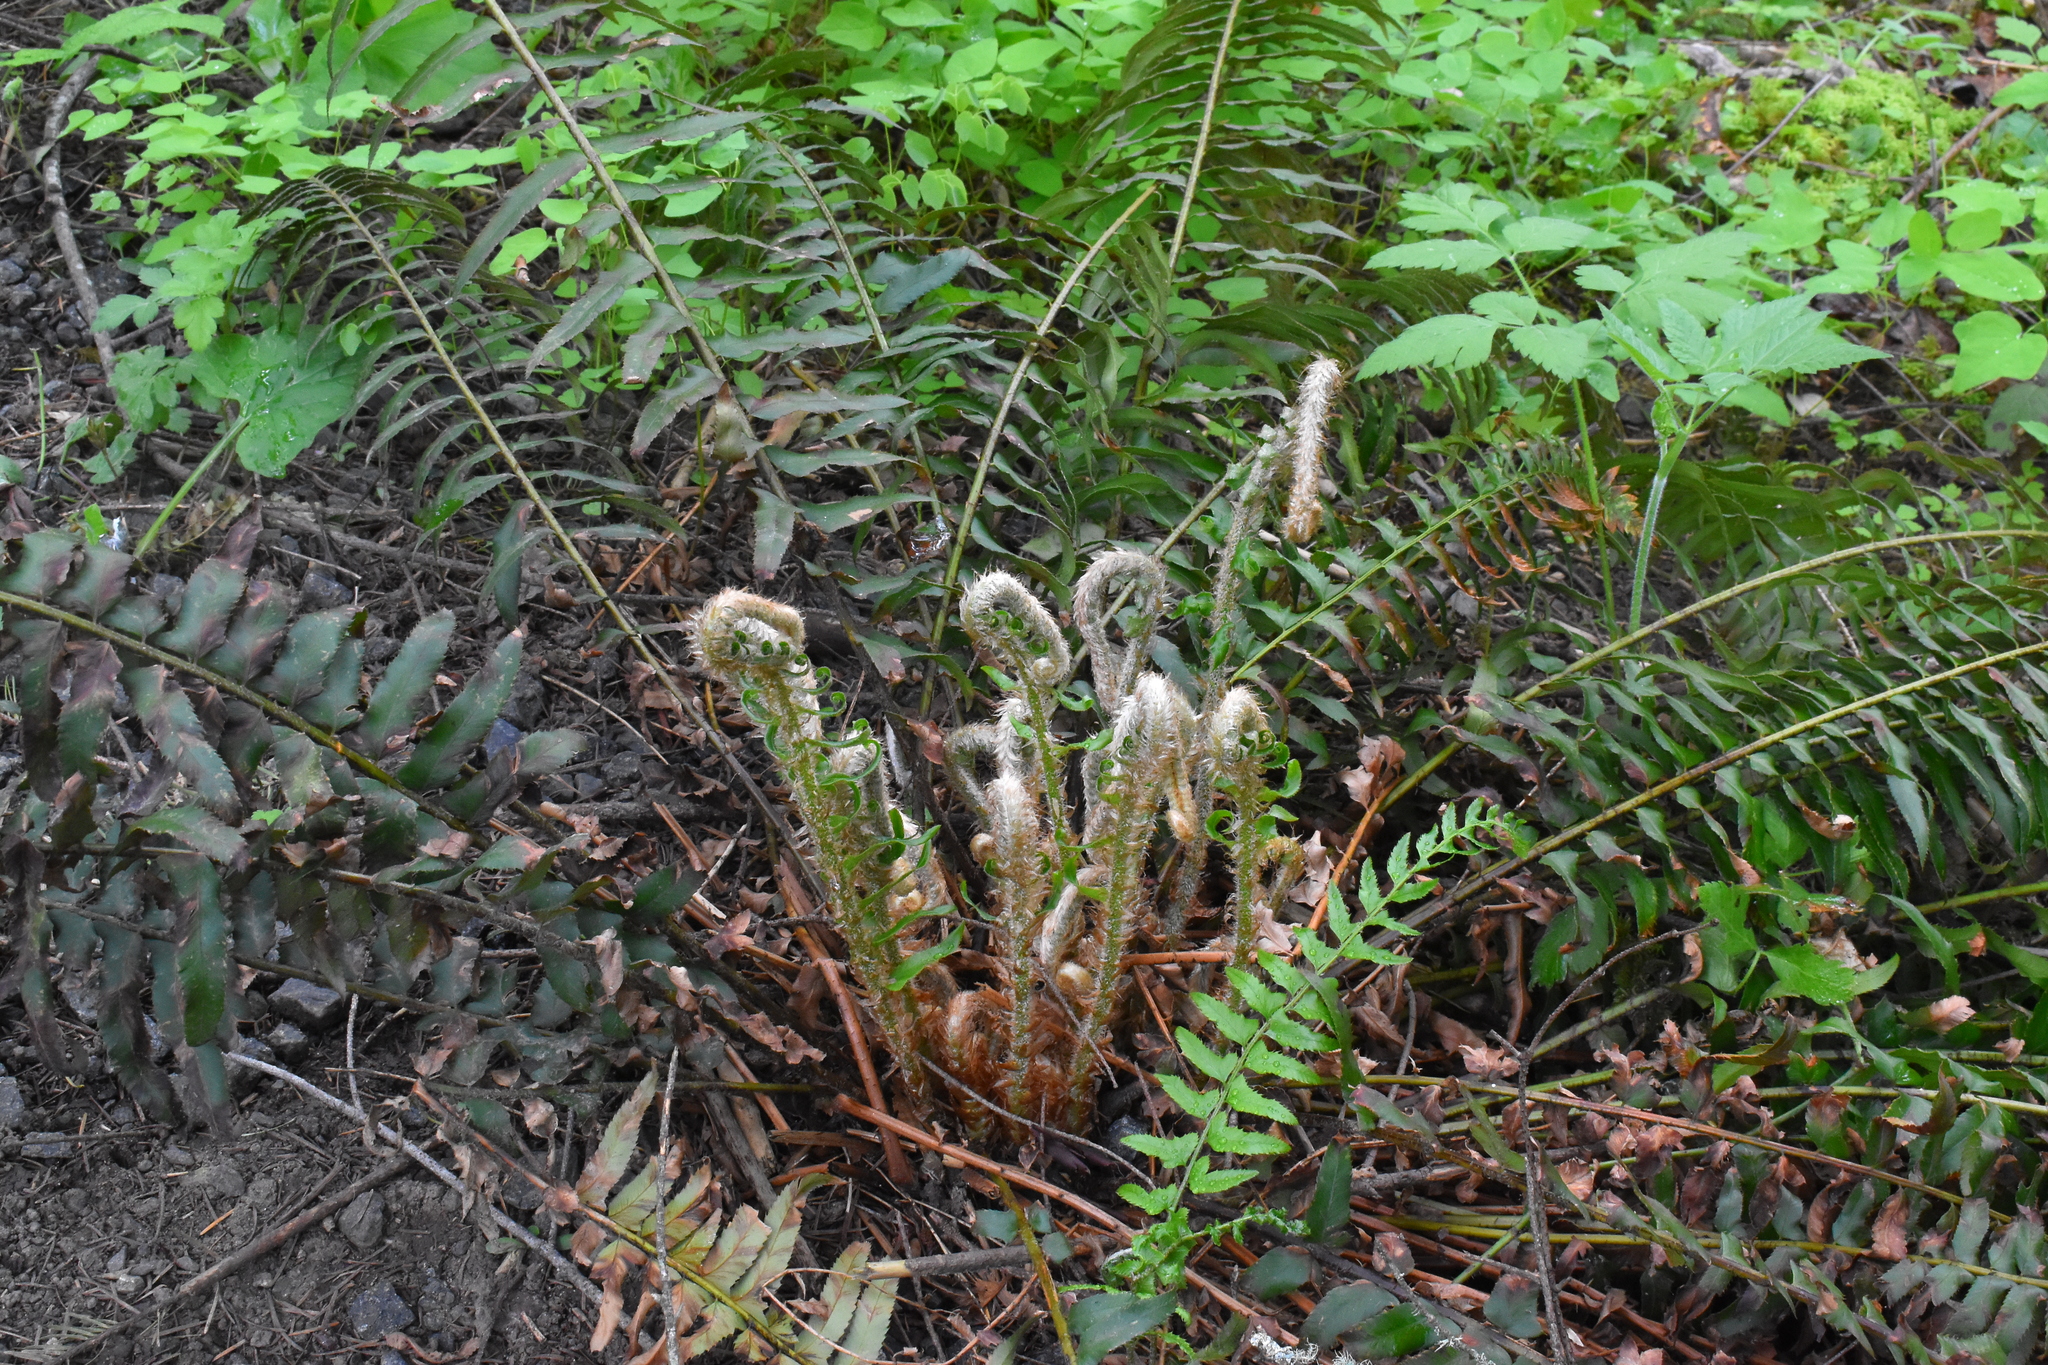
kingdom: Plantae
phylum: Tracheophyta
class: Polypodiopsida
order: Polypodiales
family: Dryopteridaceae
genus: Polystichum
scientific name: Polystichum munitum
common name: Western sword-fern
